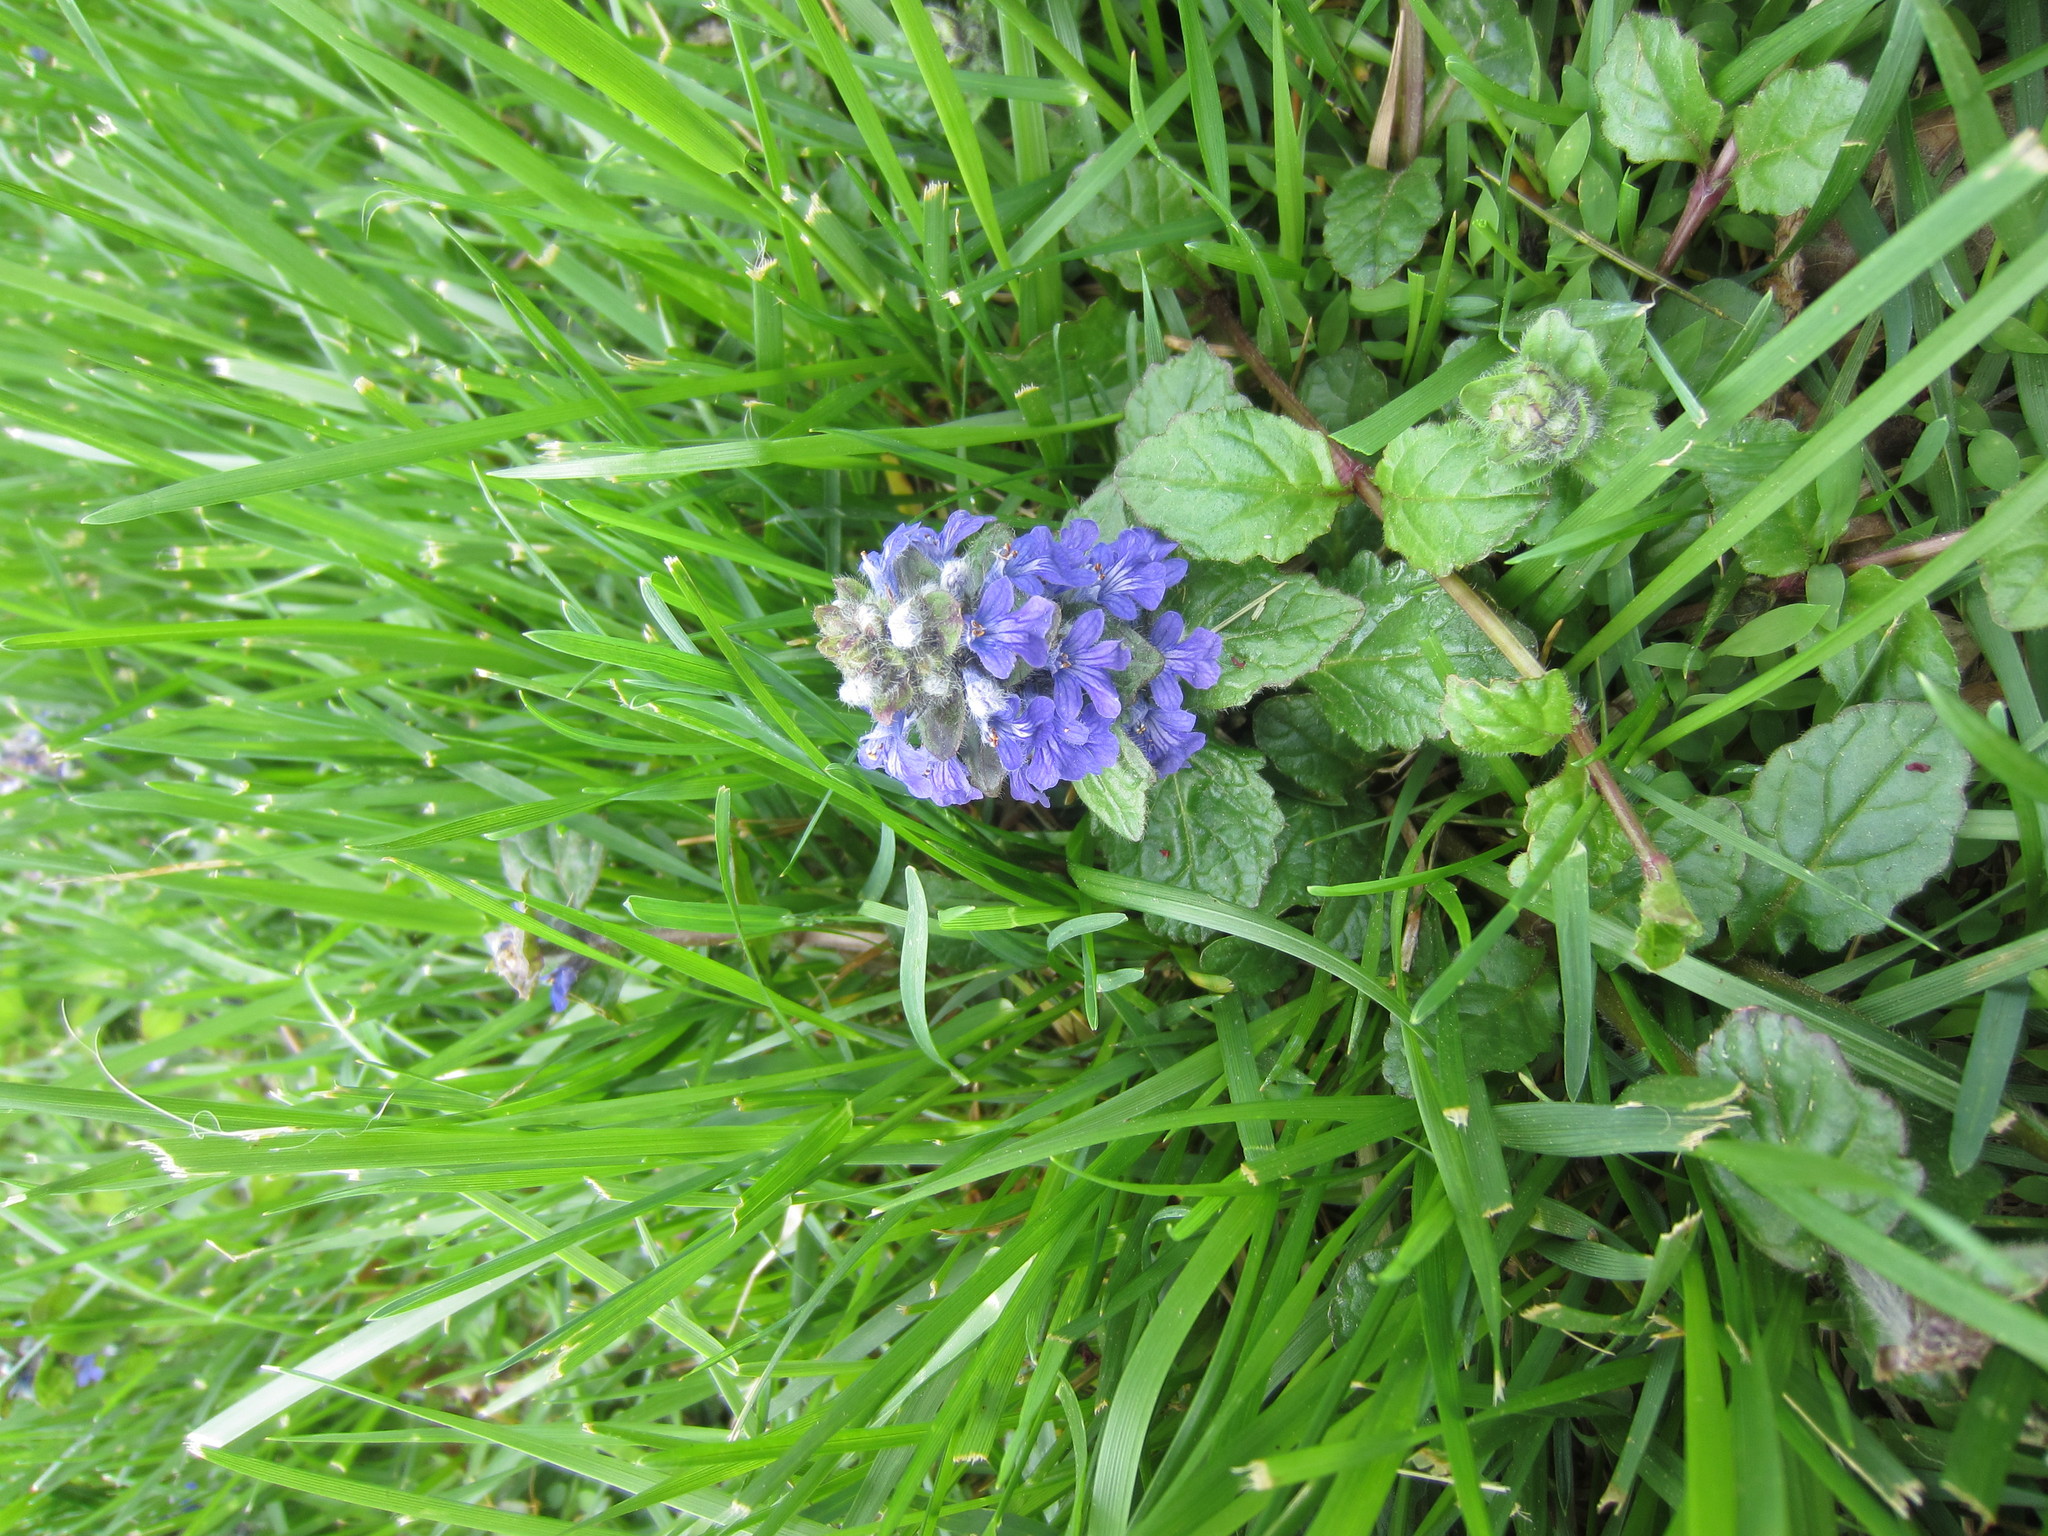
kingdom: Plantae
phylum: Tracheophyta
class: Magnoliopsida
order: Lamiales
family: Lamiaceae
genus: Ajuga
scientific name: Ajuga reptans
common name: Bugle
